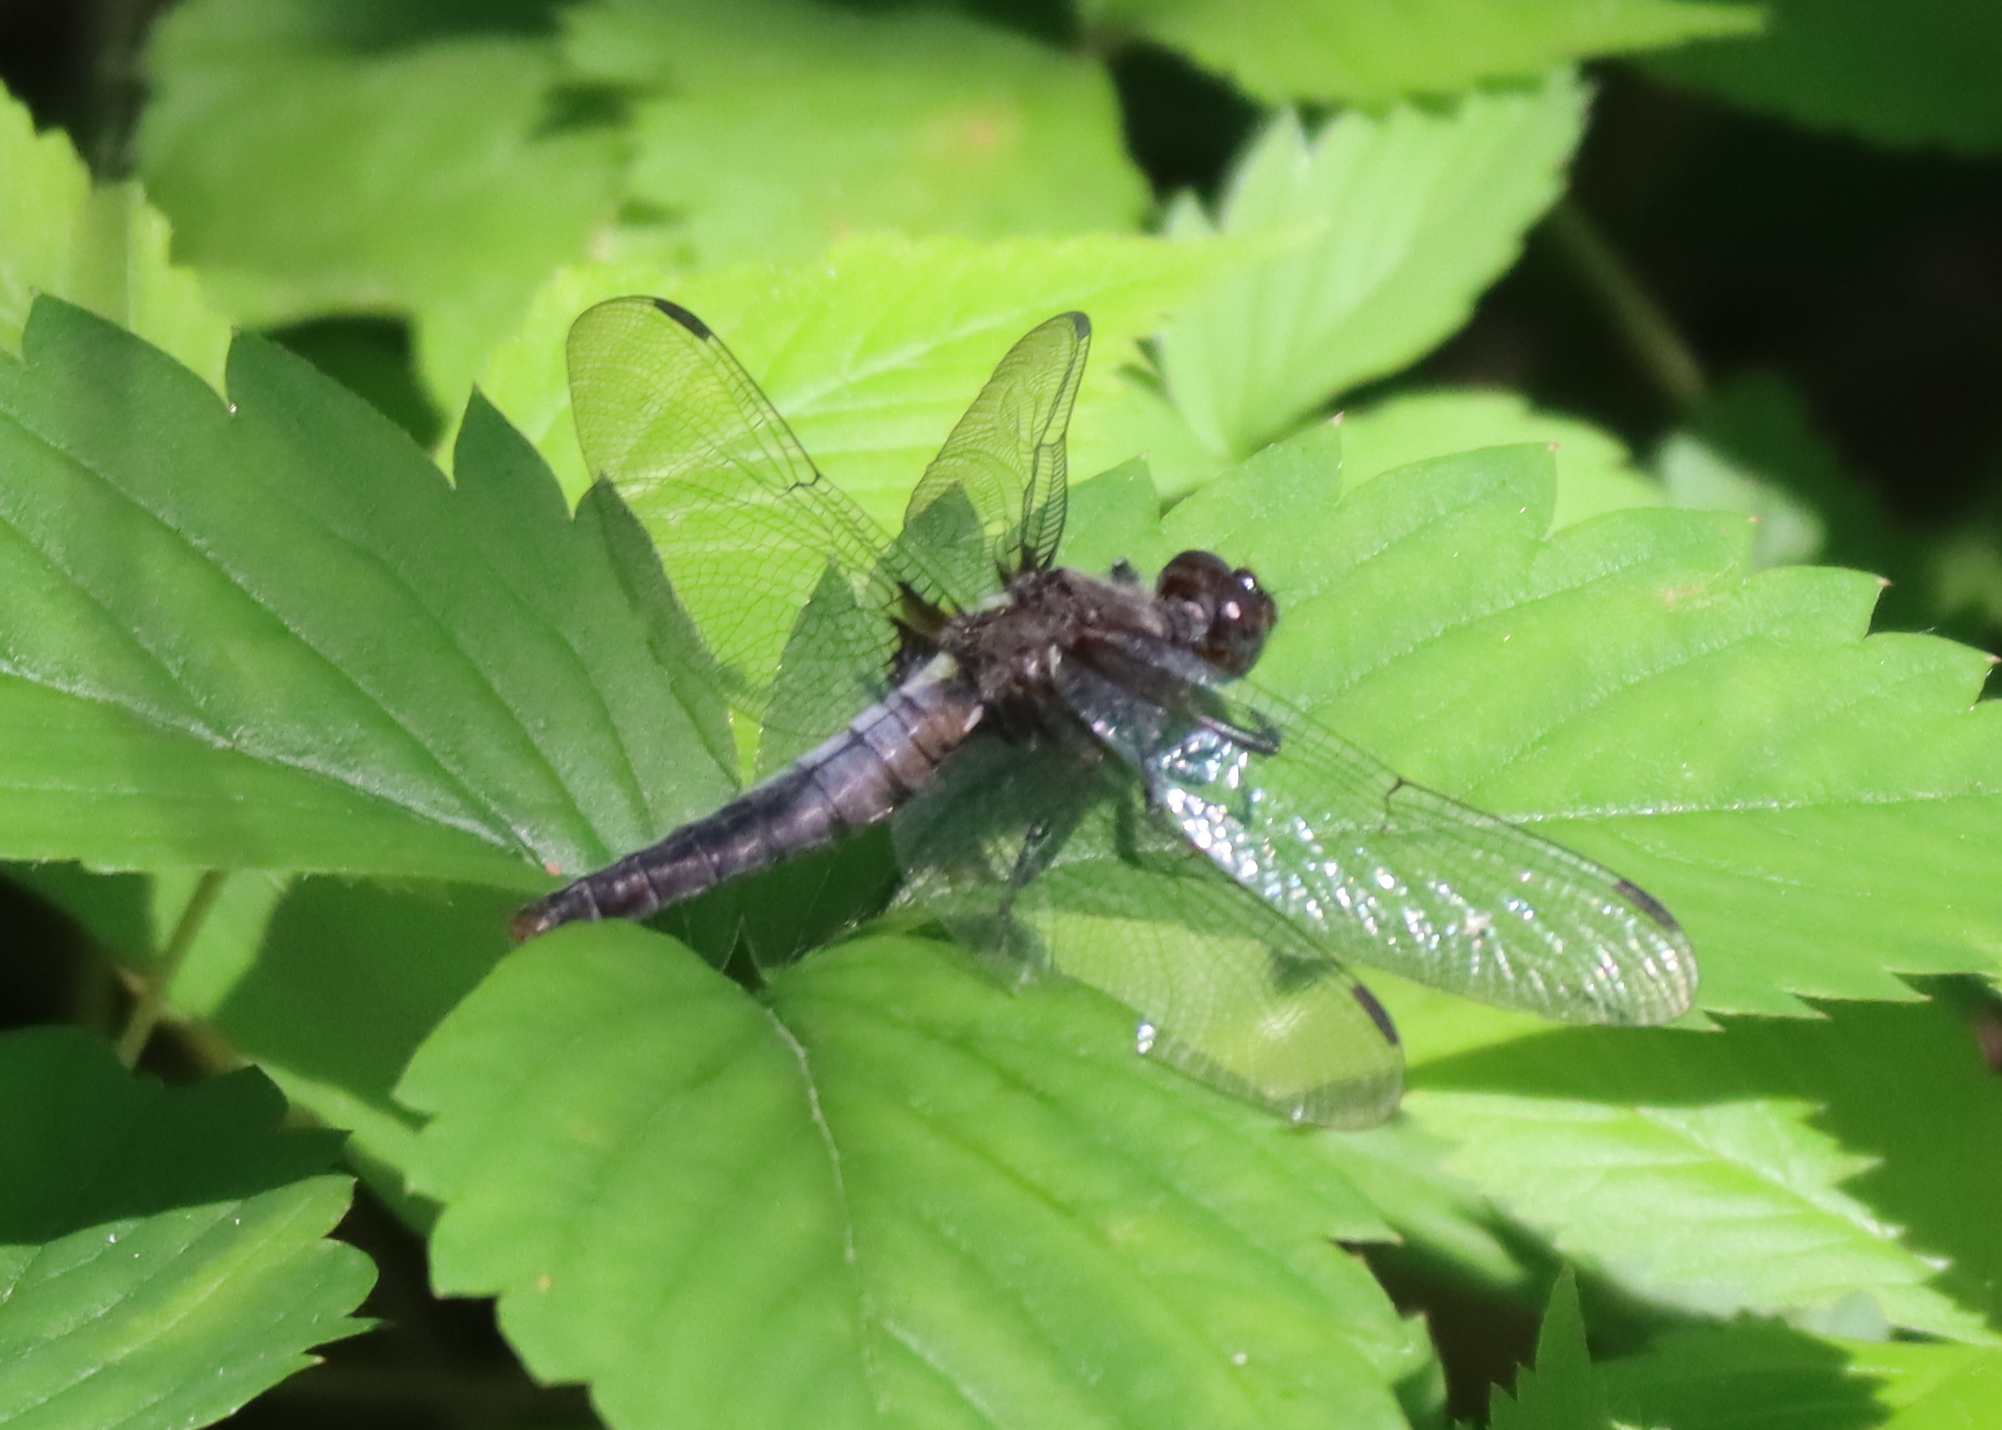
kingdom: Animalia
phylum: Arthropoda
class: Insecta
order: Odonata
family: Libellulidae
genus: Ladona
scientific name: Ladona julia
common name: Chalk-fronted corporal
